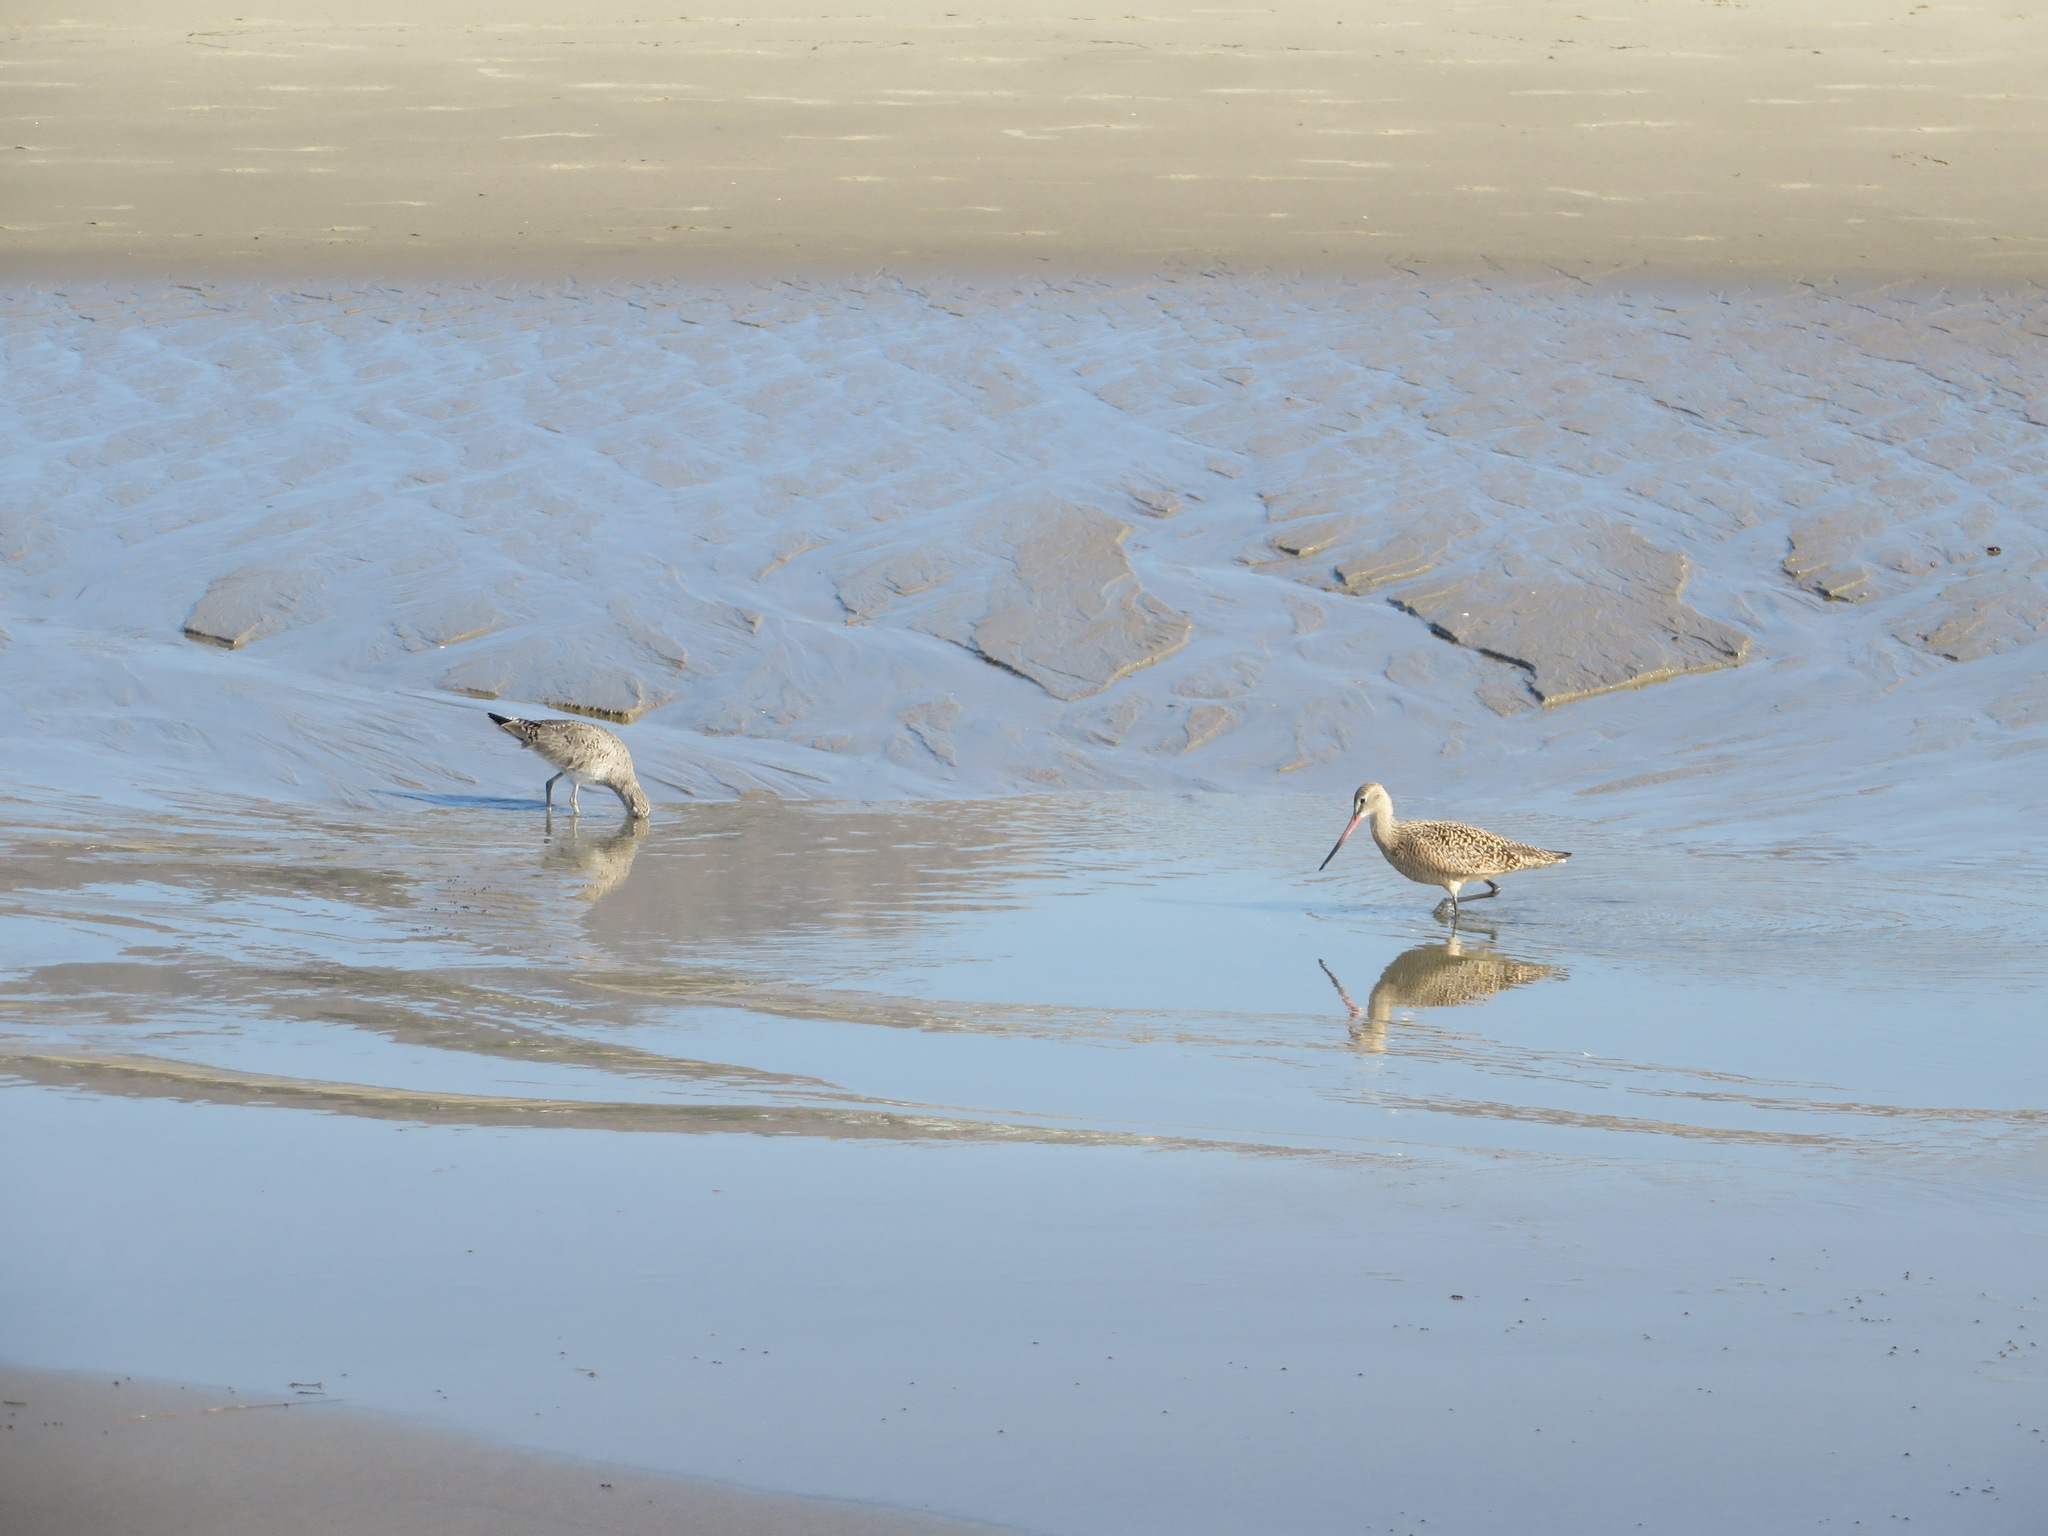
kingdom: Animalia
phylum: Chordata
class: Aves
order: Charadriiformes
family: Scolopacidae
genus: Limosa
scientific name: Limosa fedoa
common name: Marbled godwit
